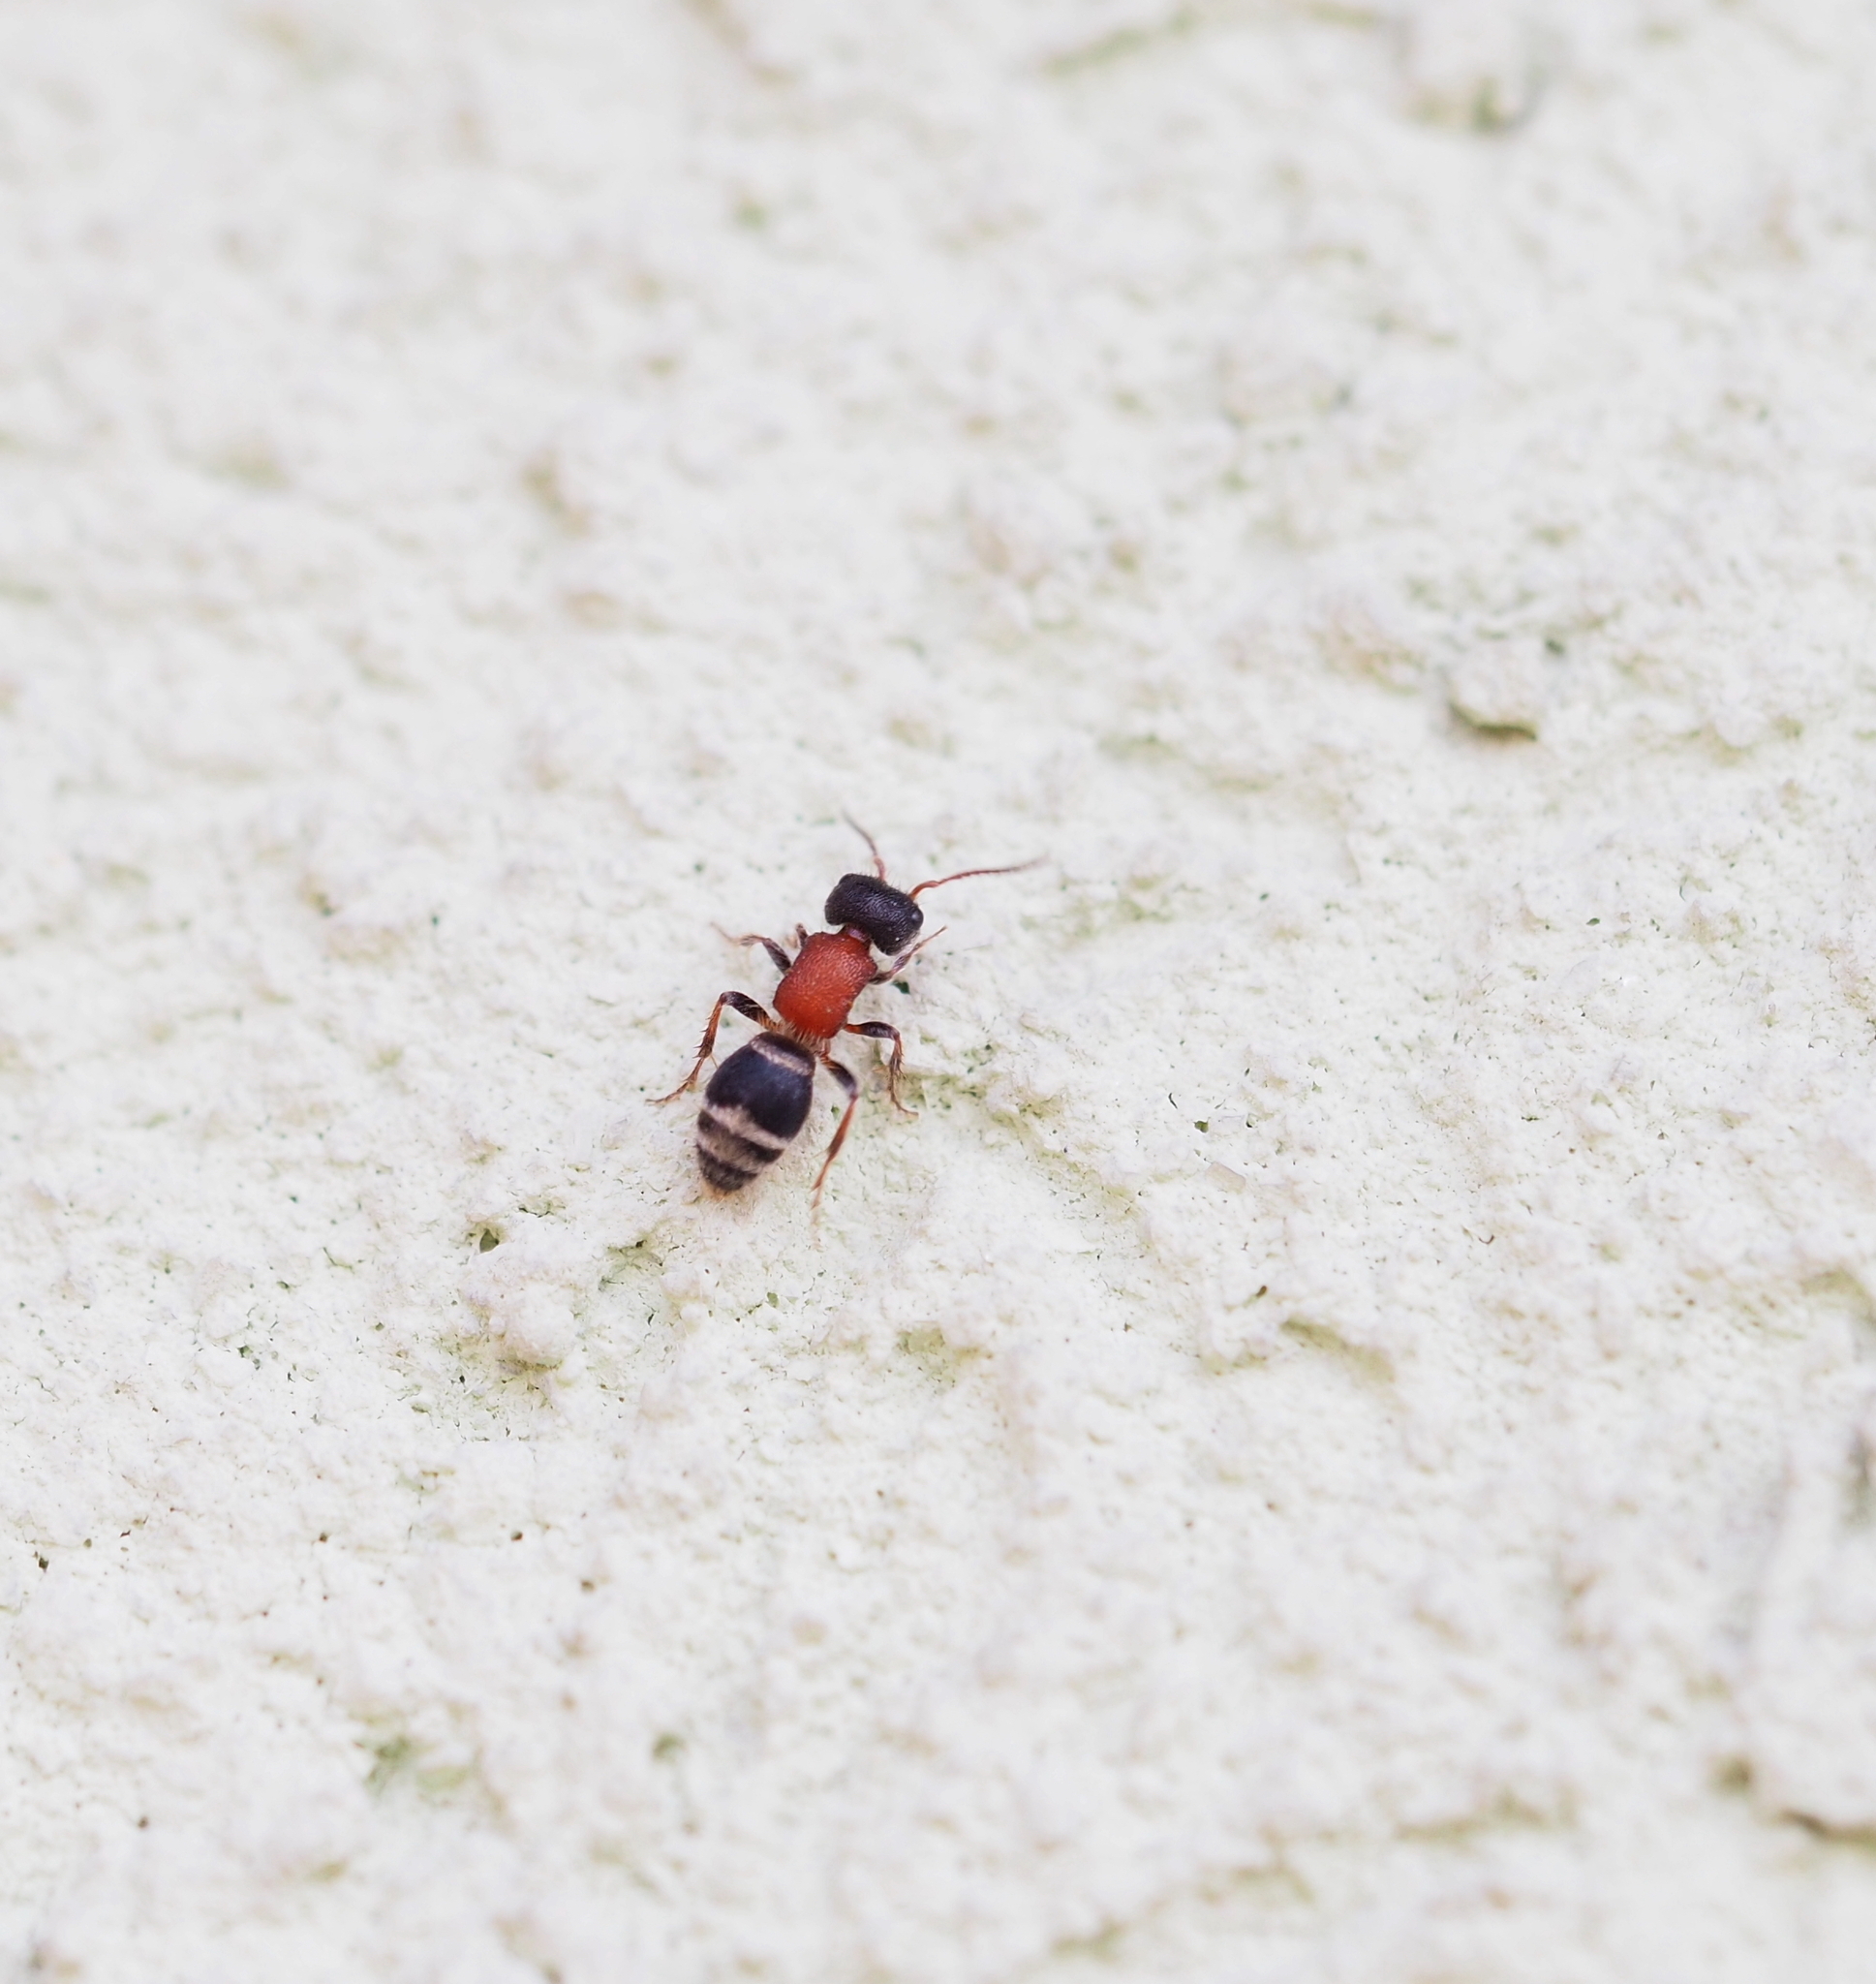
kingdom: Animalia
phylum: Arthropoda
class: Insecta
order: Hymenoptera
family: Mutillidae
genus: Myrmilla
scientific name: Myrmilla calva
